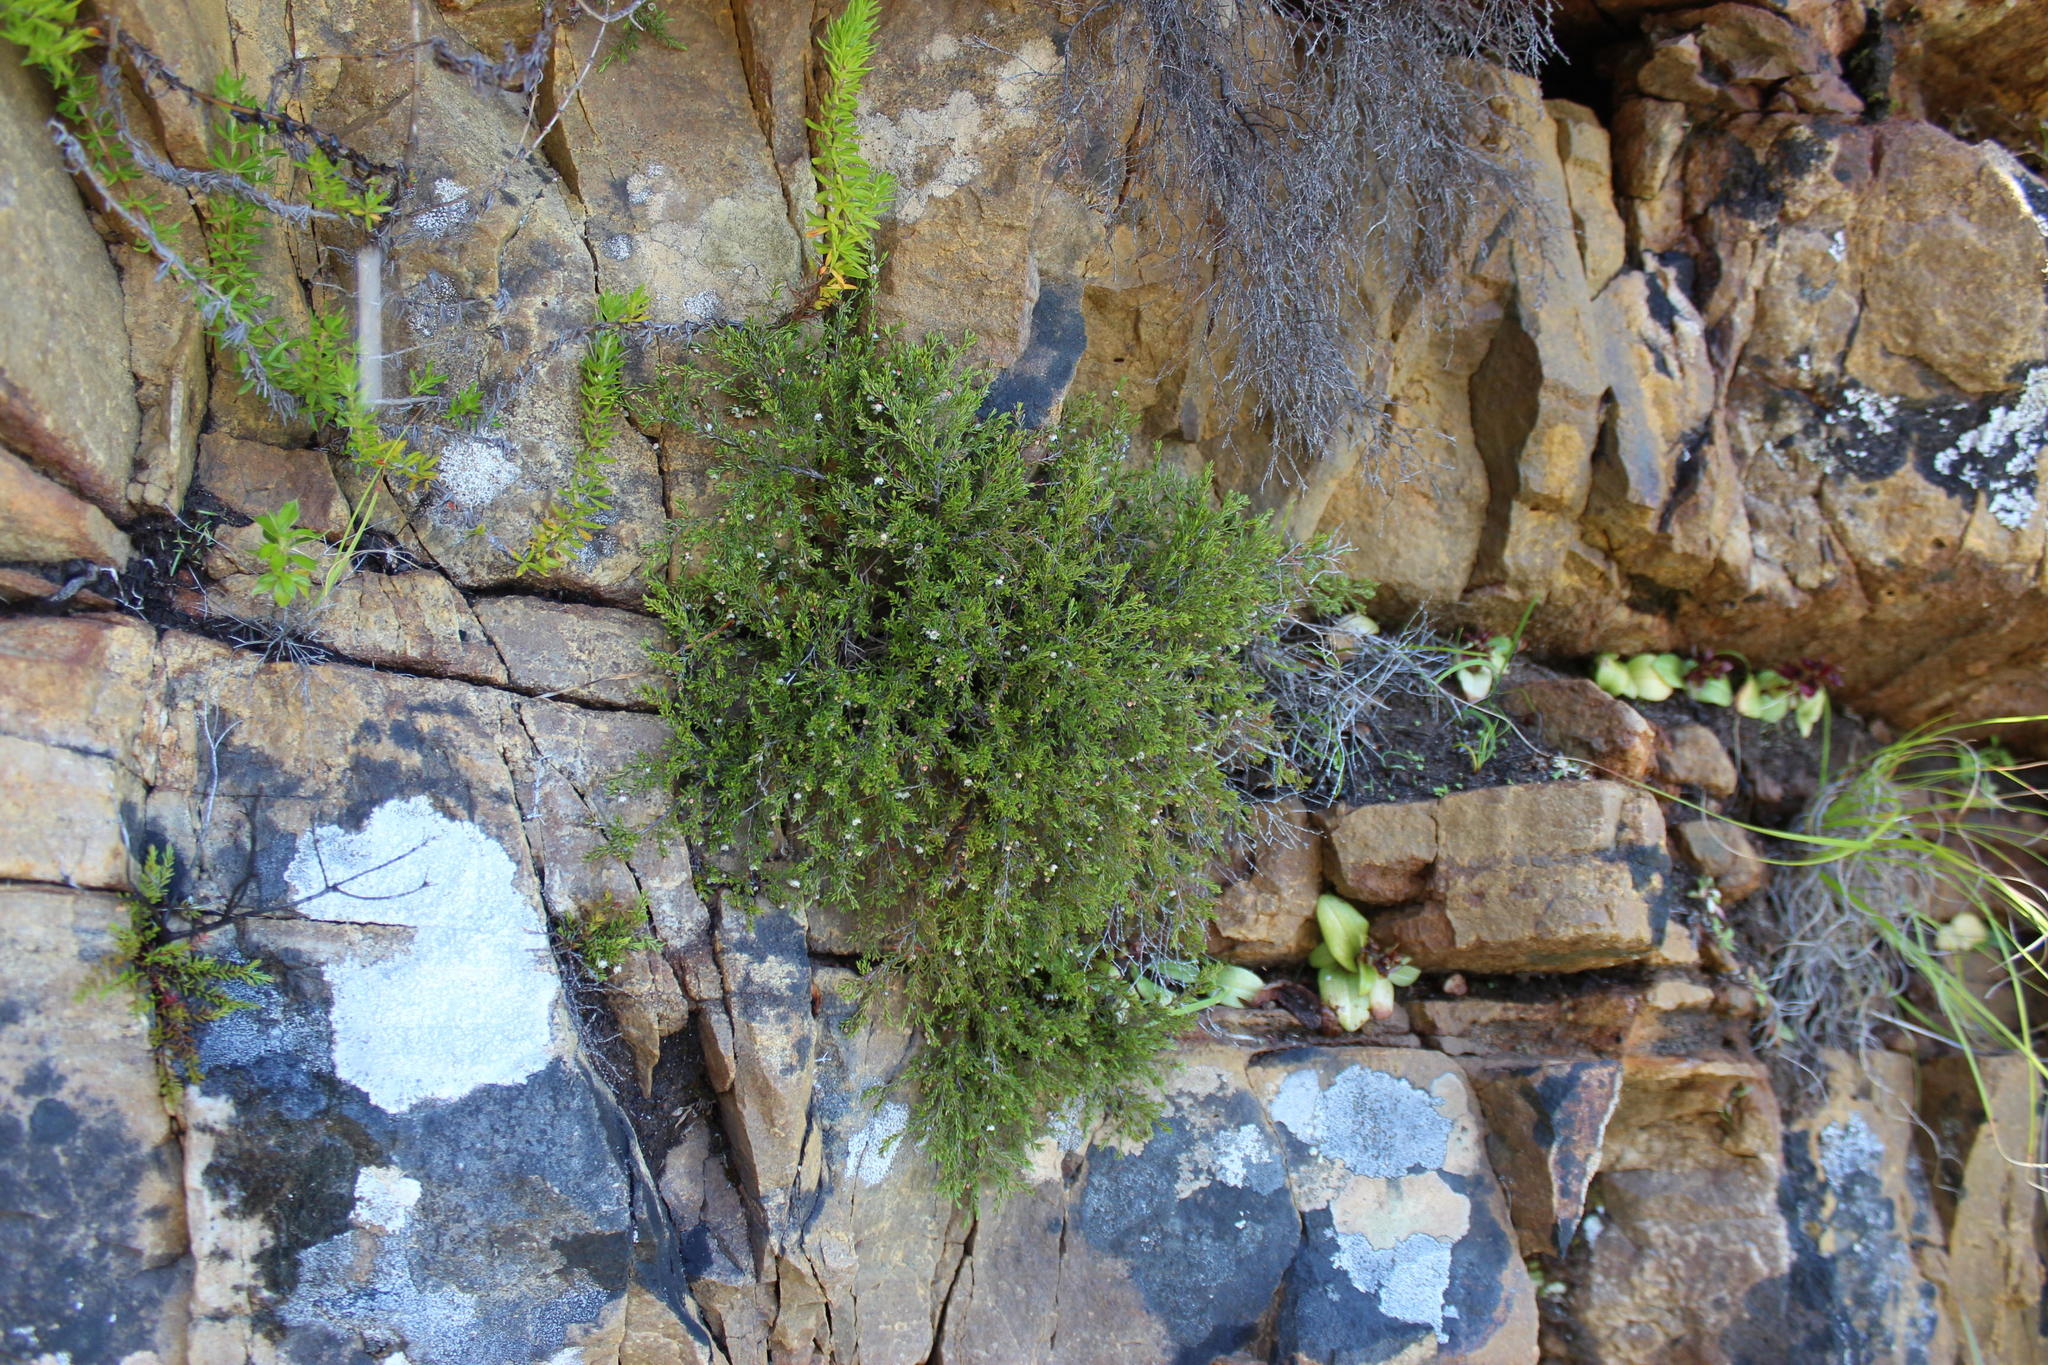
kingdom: Plantae
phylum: Tracheophyta
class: Liliopsida
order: Asparagales
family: Orchidaceae
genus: Satyrium
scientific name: Satyrium bracteatum
